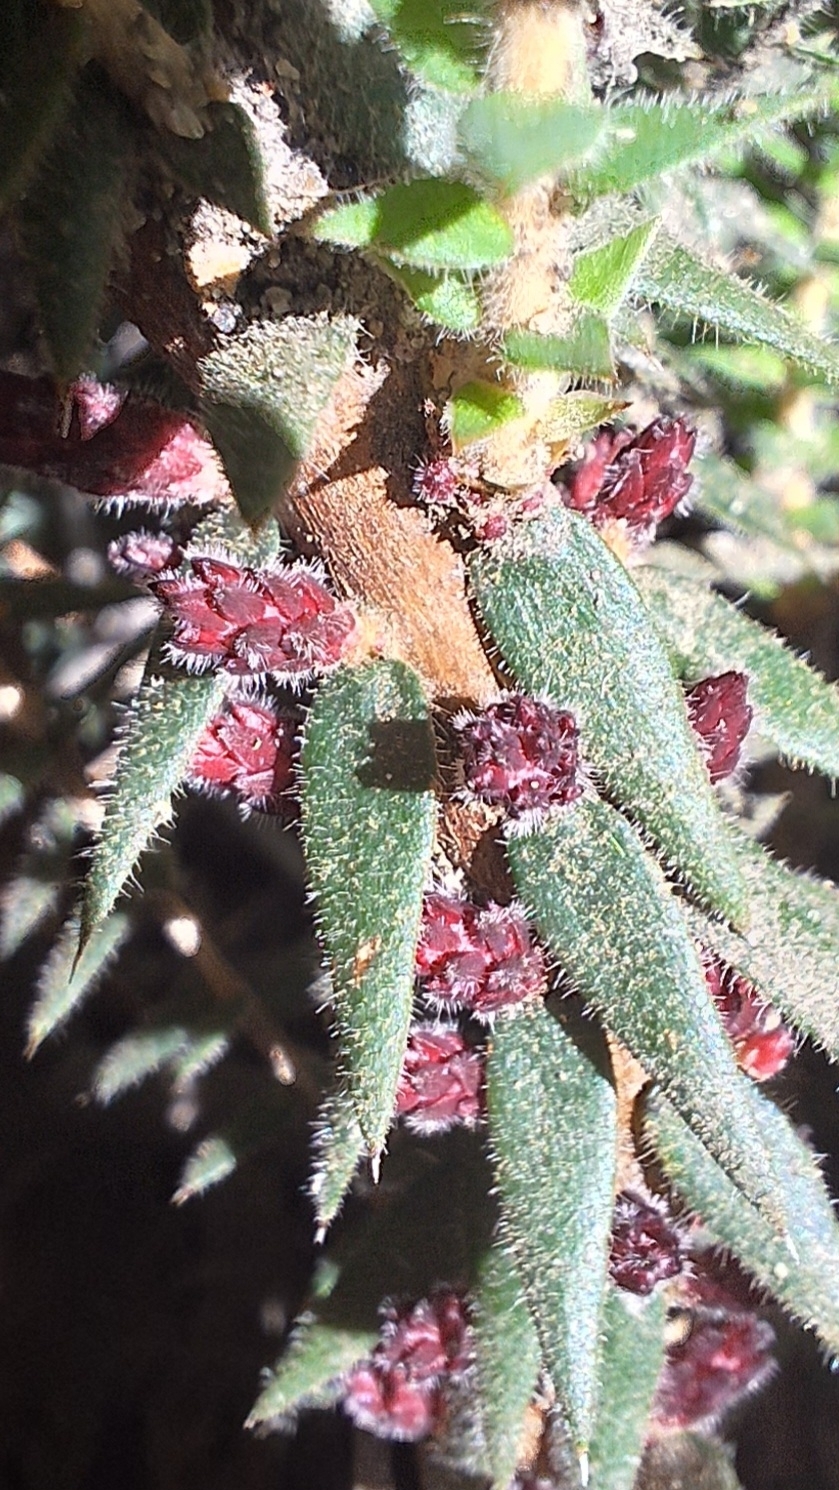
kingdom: Plantae
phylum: Tracheophyta
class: Magnoliopsida
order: Ericales
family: Ericaceae
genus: Acrotriche
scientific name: Acrotriche fasciculiflora
